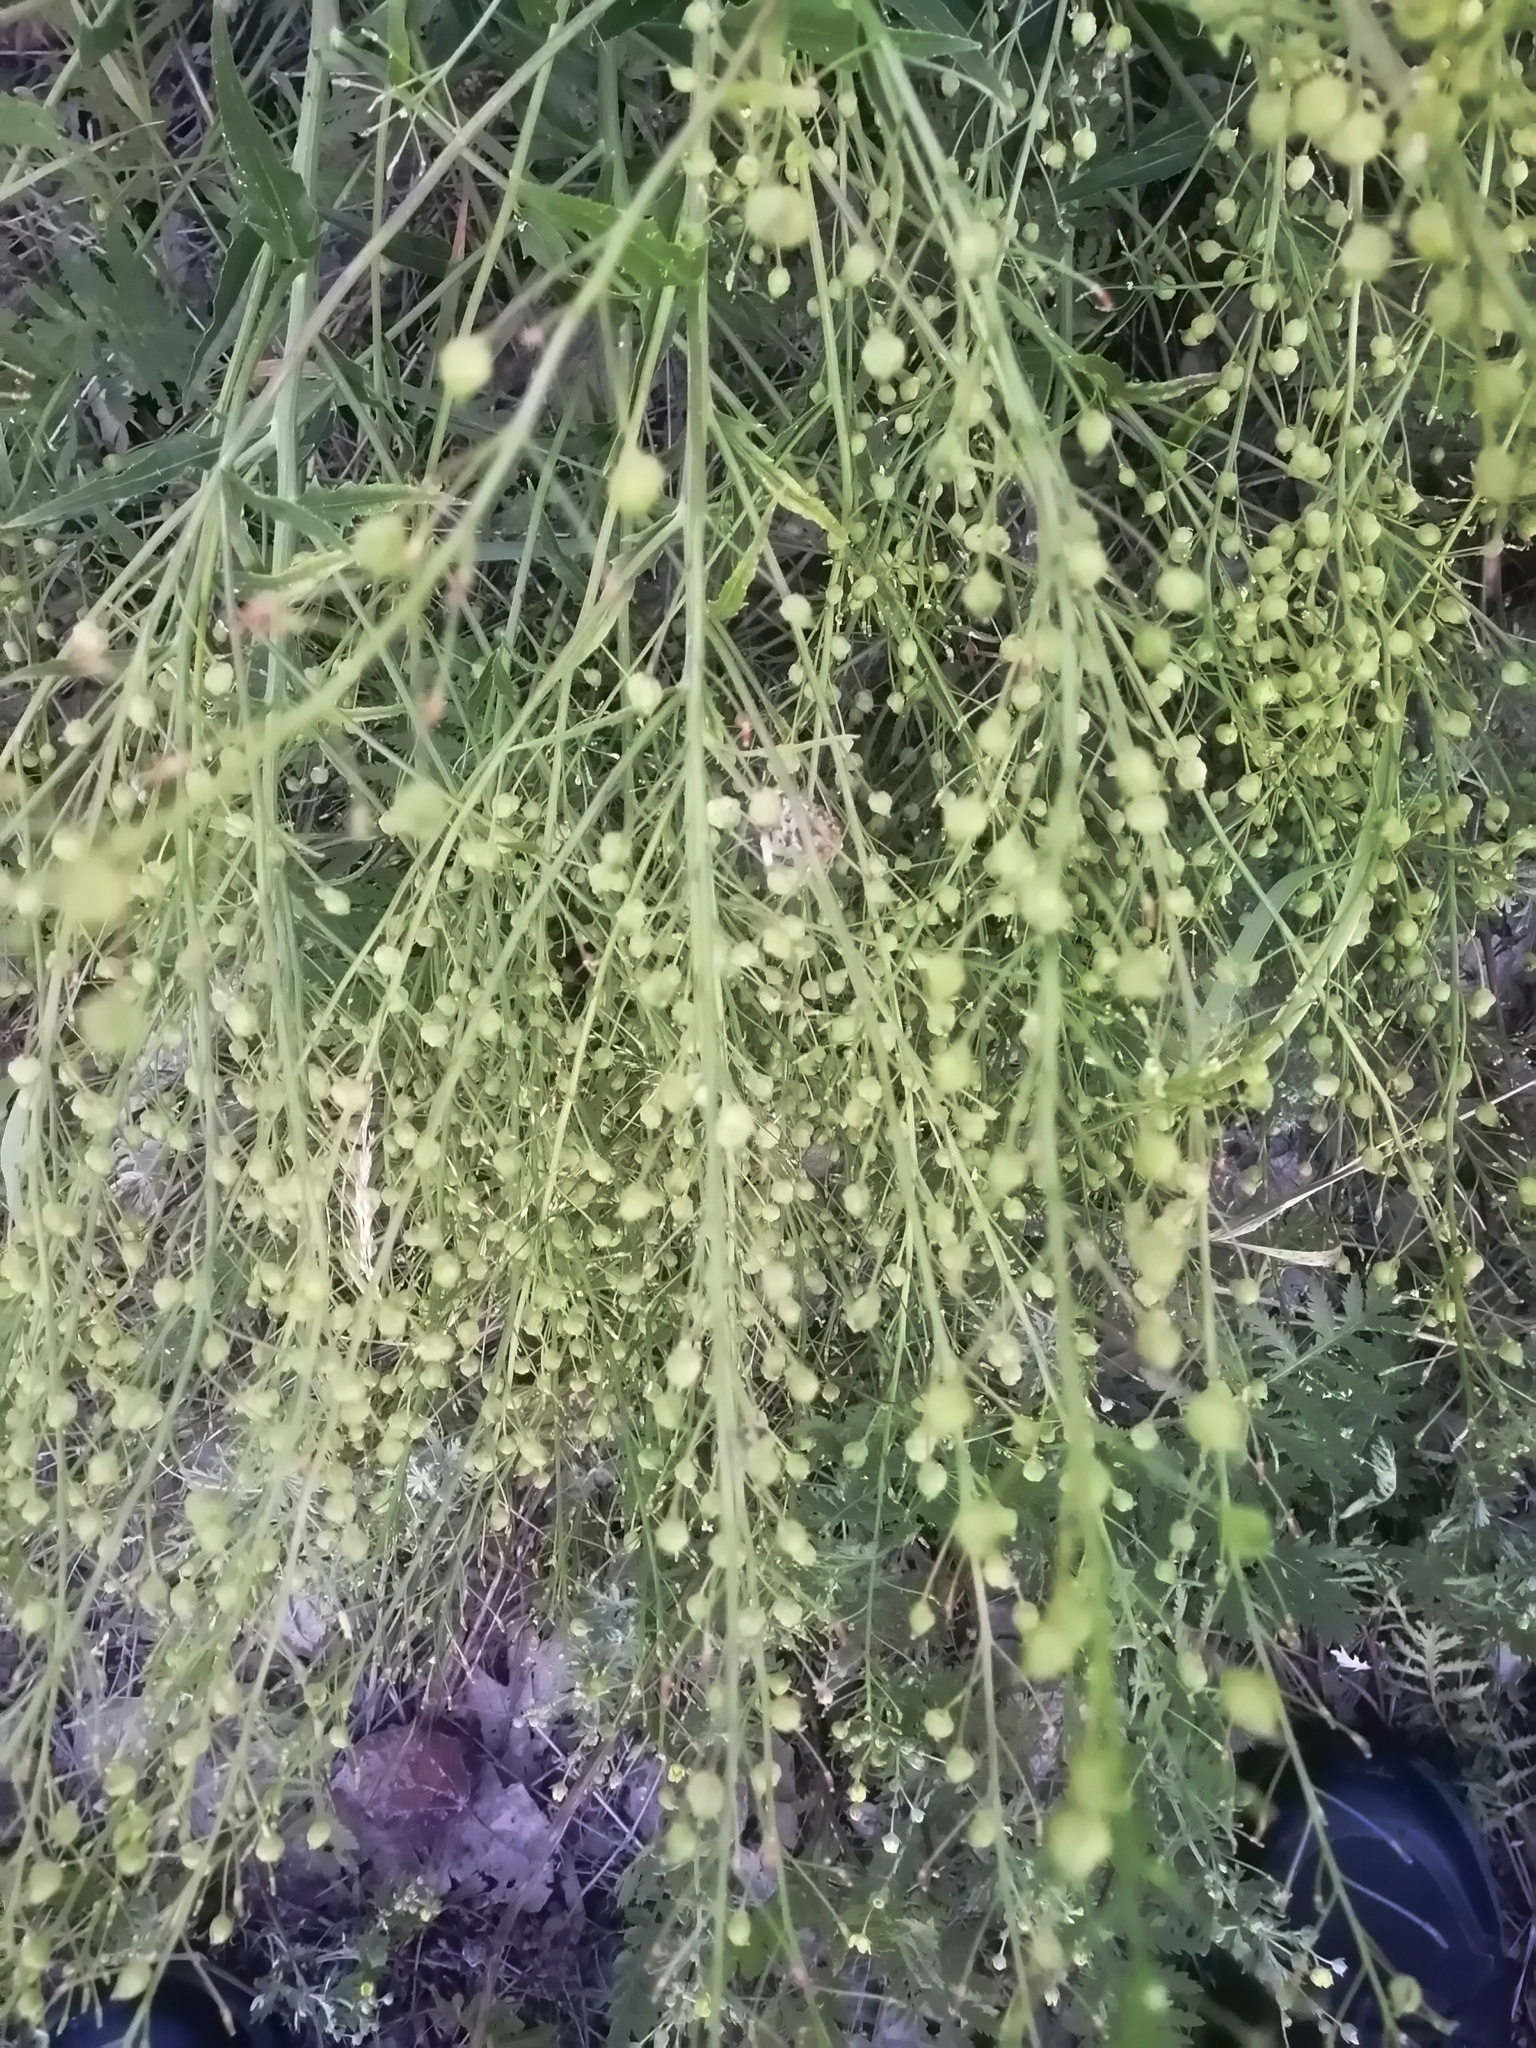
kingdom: Plantae
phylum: Tracheophyta
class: Magnoliopsida
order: Brassicales
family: Brassicaceae
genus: Bunias
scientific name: Bunias orientalis
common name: Warty-cabbage
